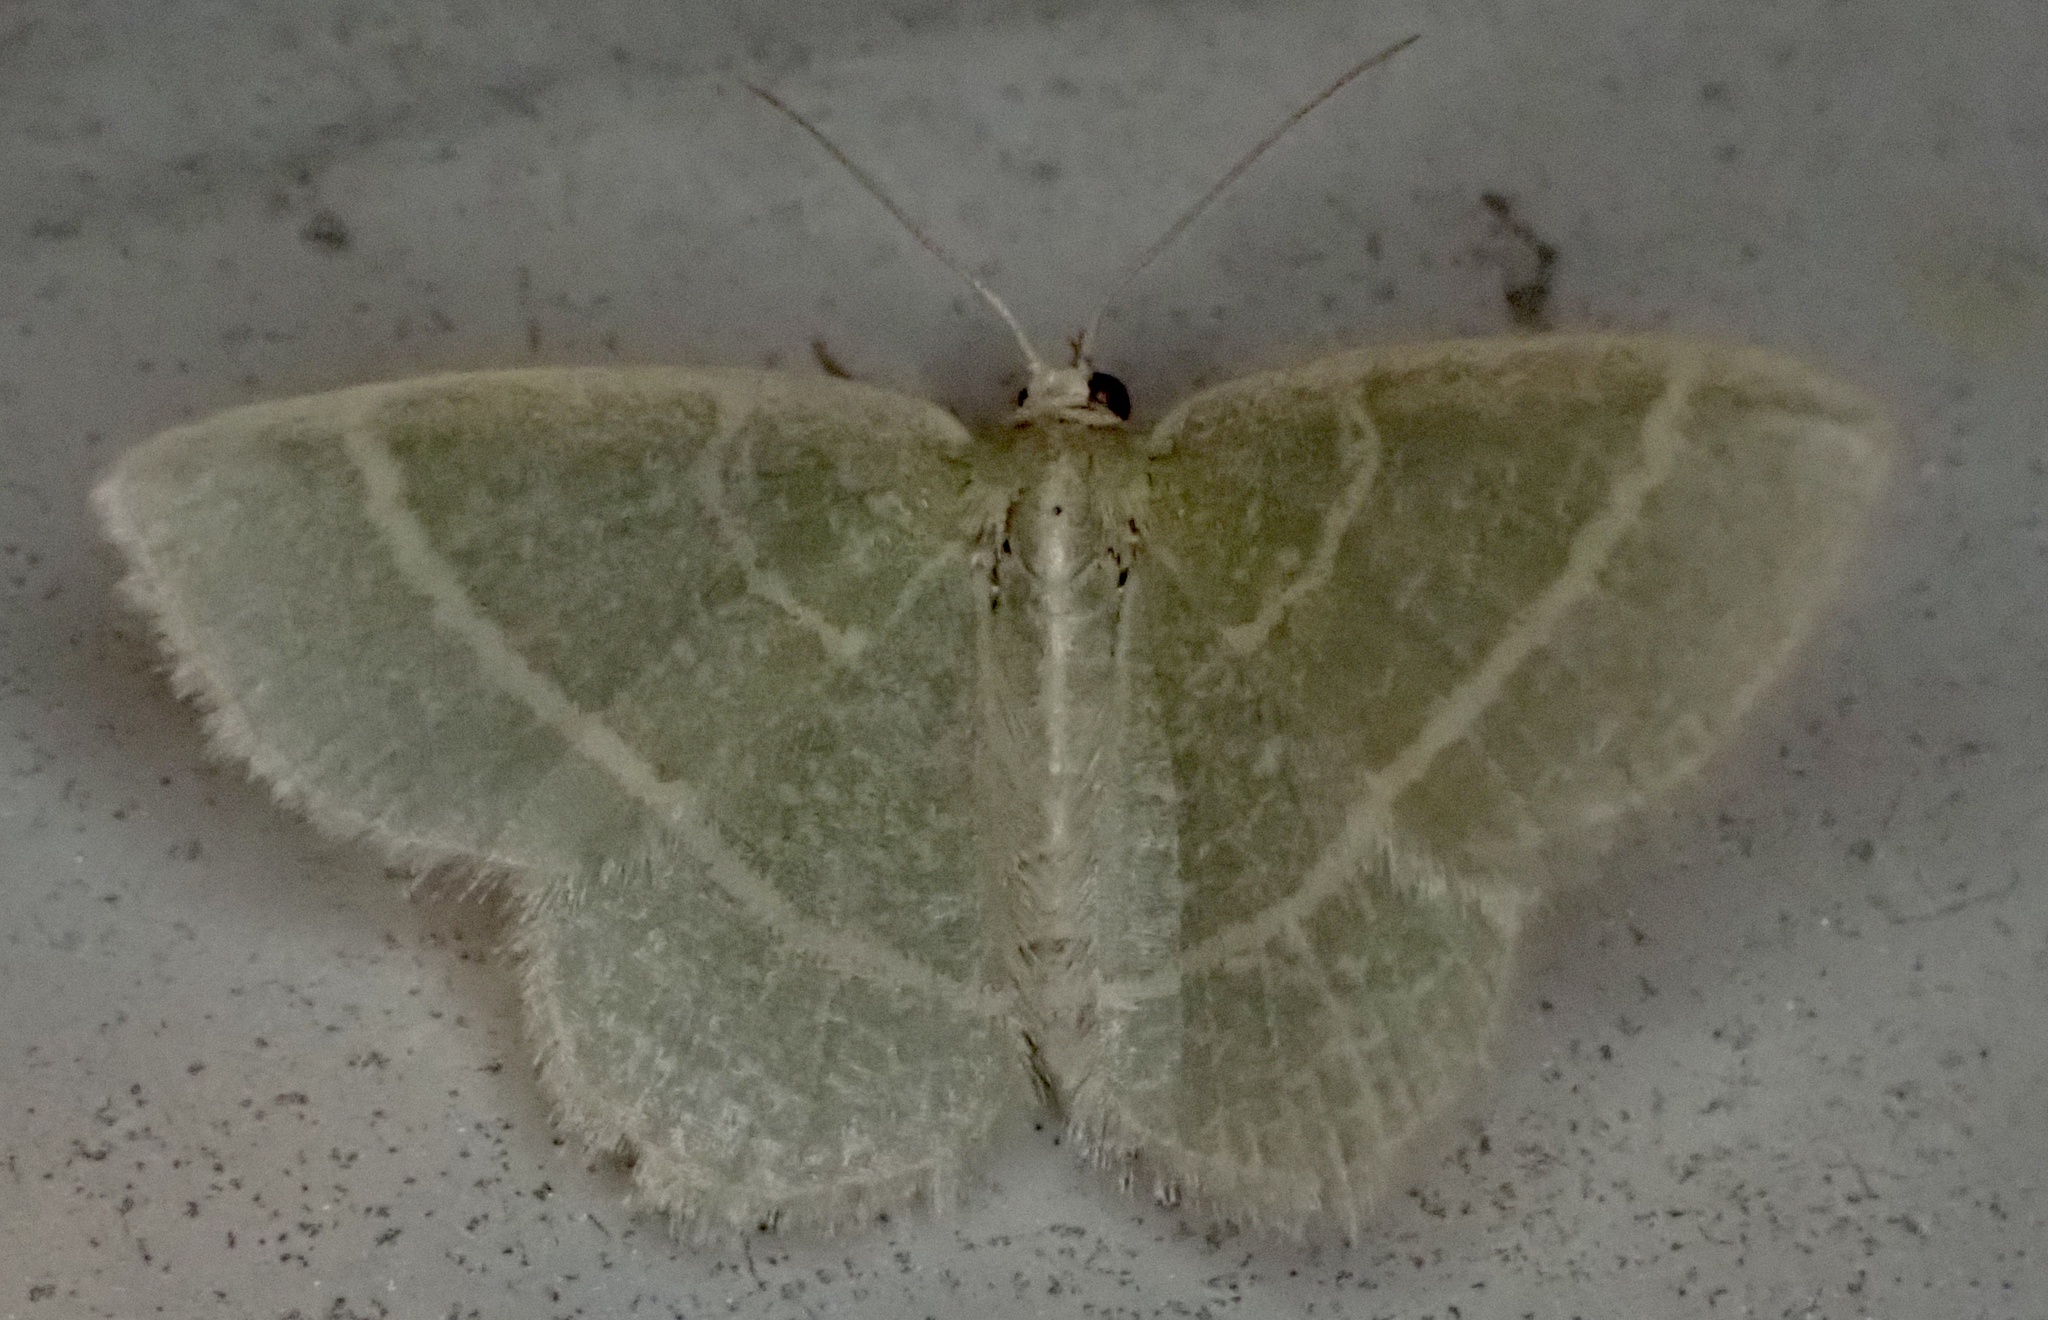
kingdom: Animalia
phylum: Arthropoda
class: Insecta
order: Lepidoptera
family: Geometridae
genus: Chlorochlamys
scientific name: Chlorochlamys chloroleucaria
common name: Blackberry looper
